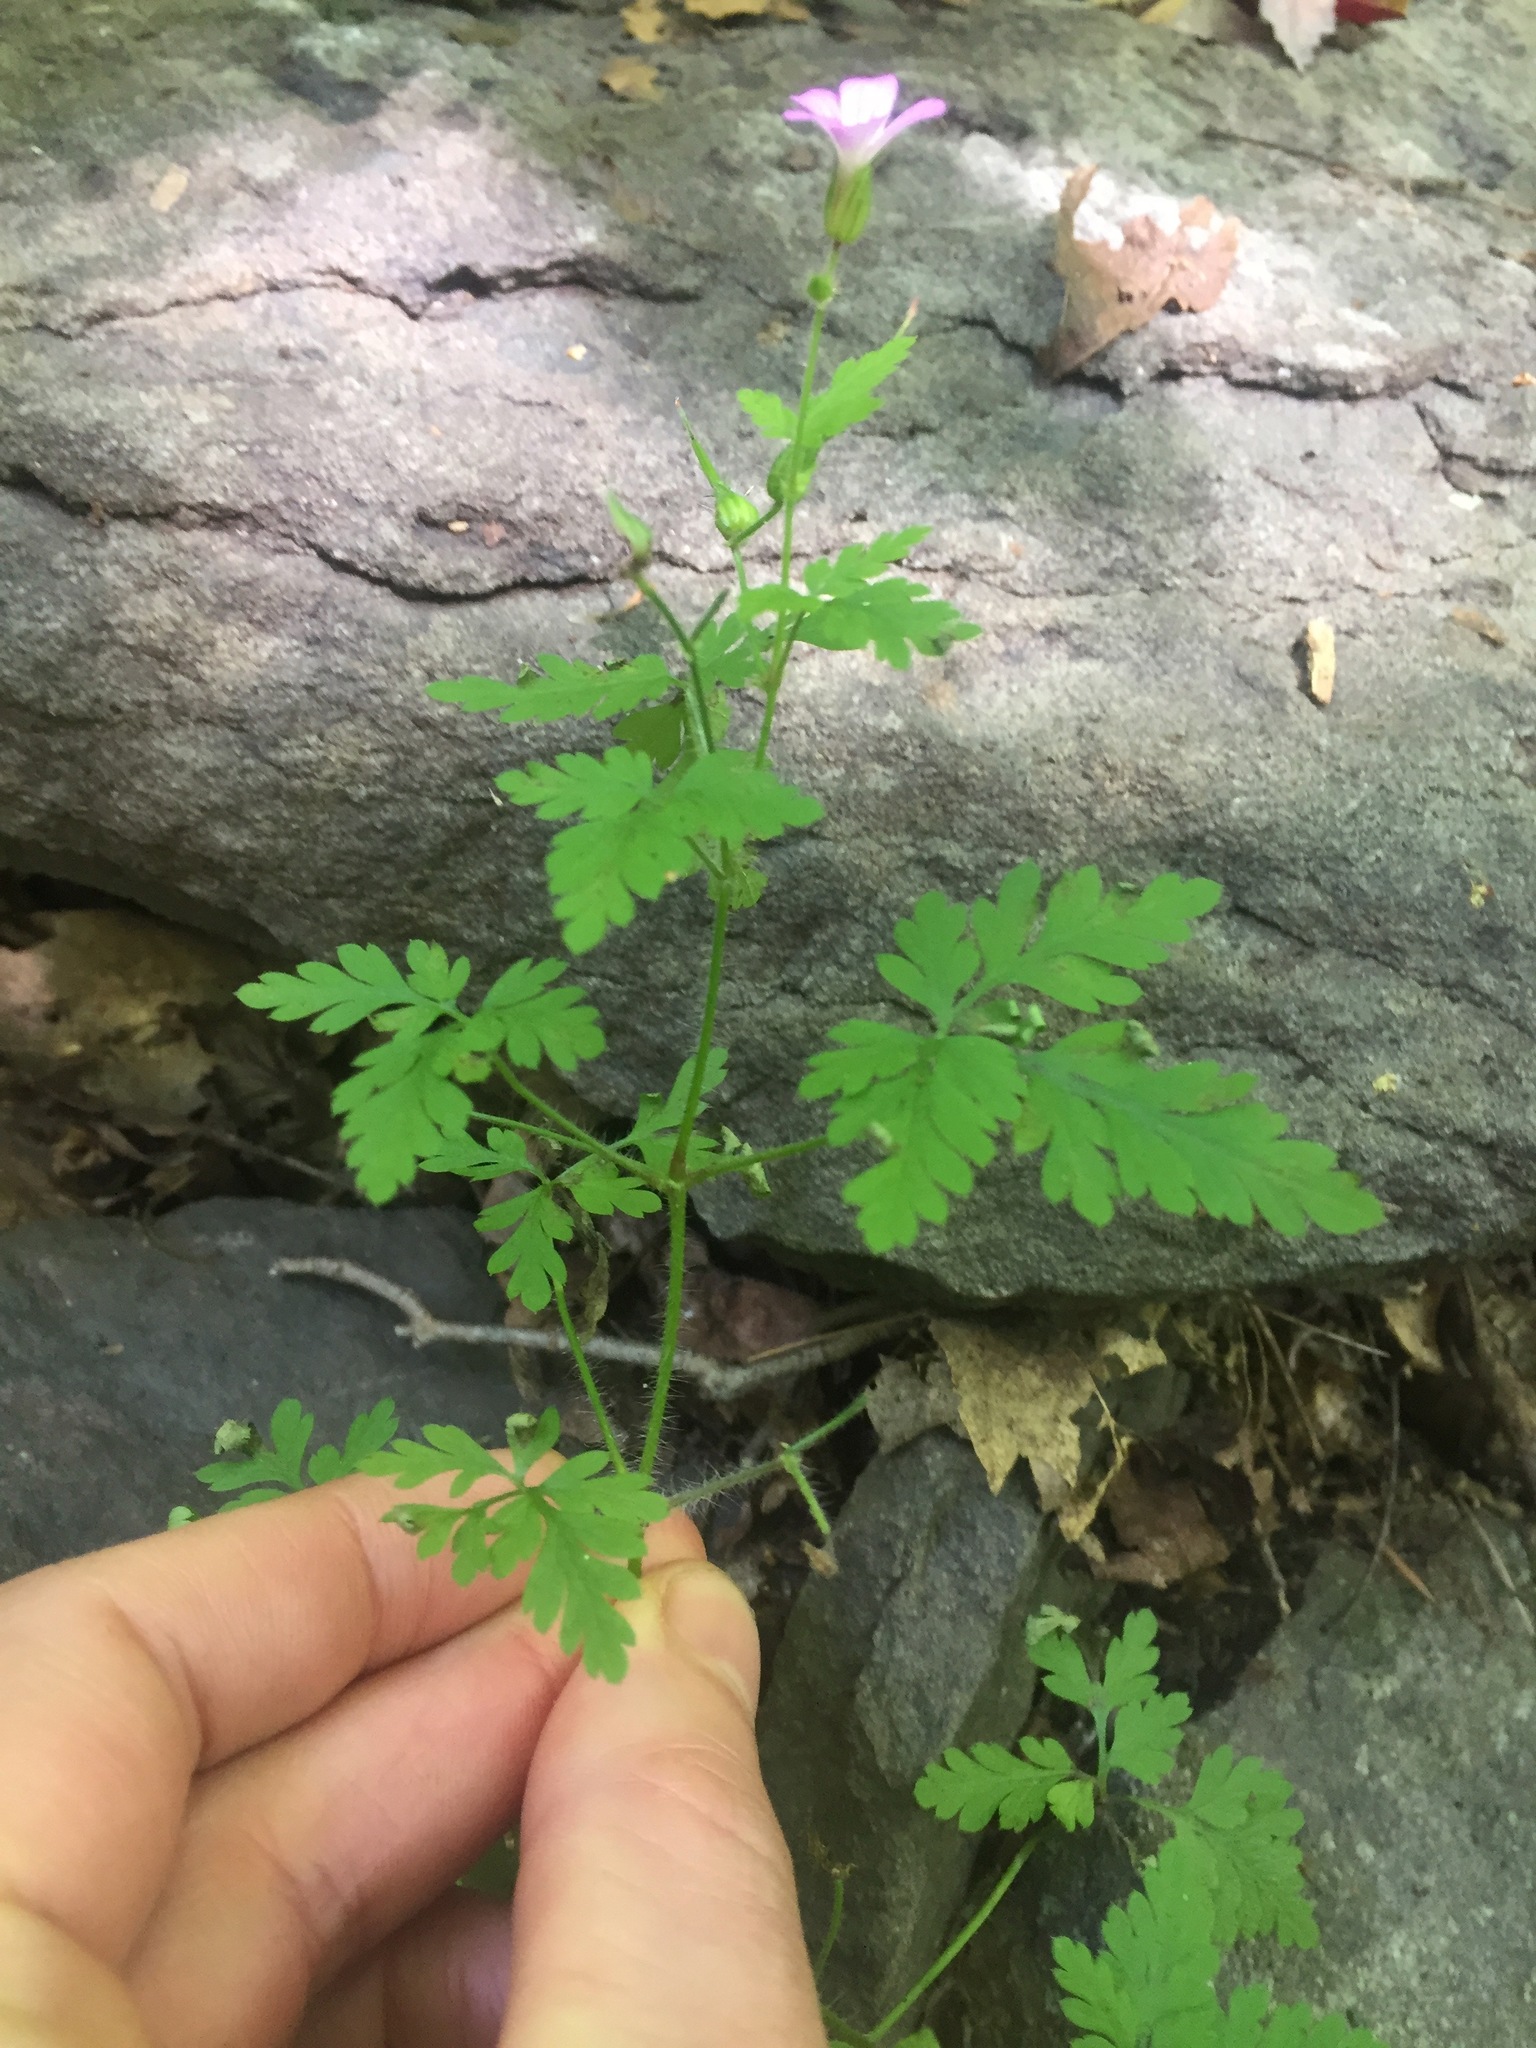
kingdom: Plantae
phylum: Tracheophyta
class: Magnoliopsida
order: Geraniales
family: Geraniaceae
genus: Geranium
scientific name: Geranium robertianum
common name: Herb-robert
